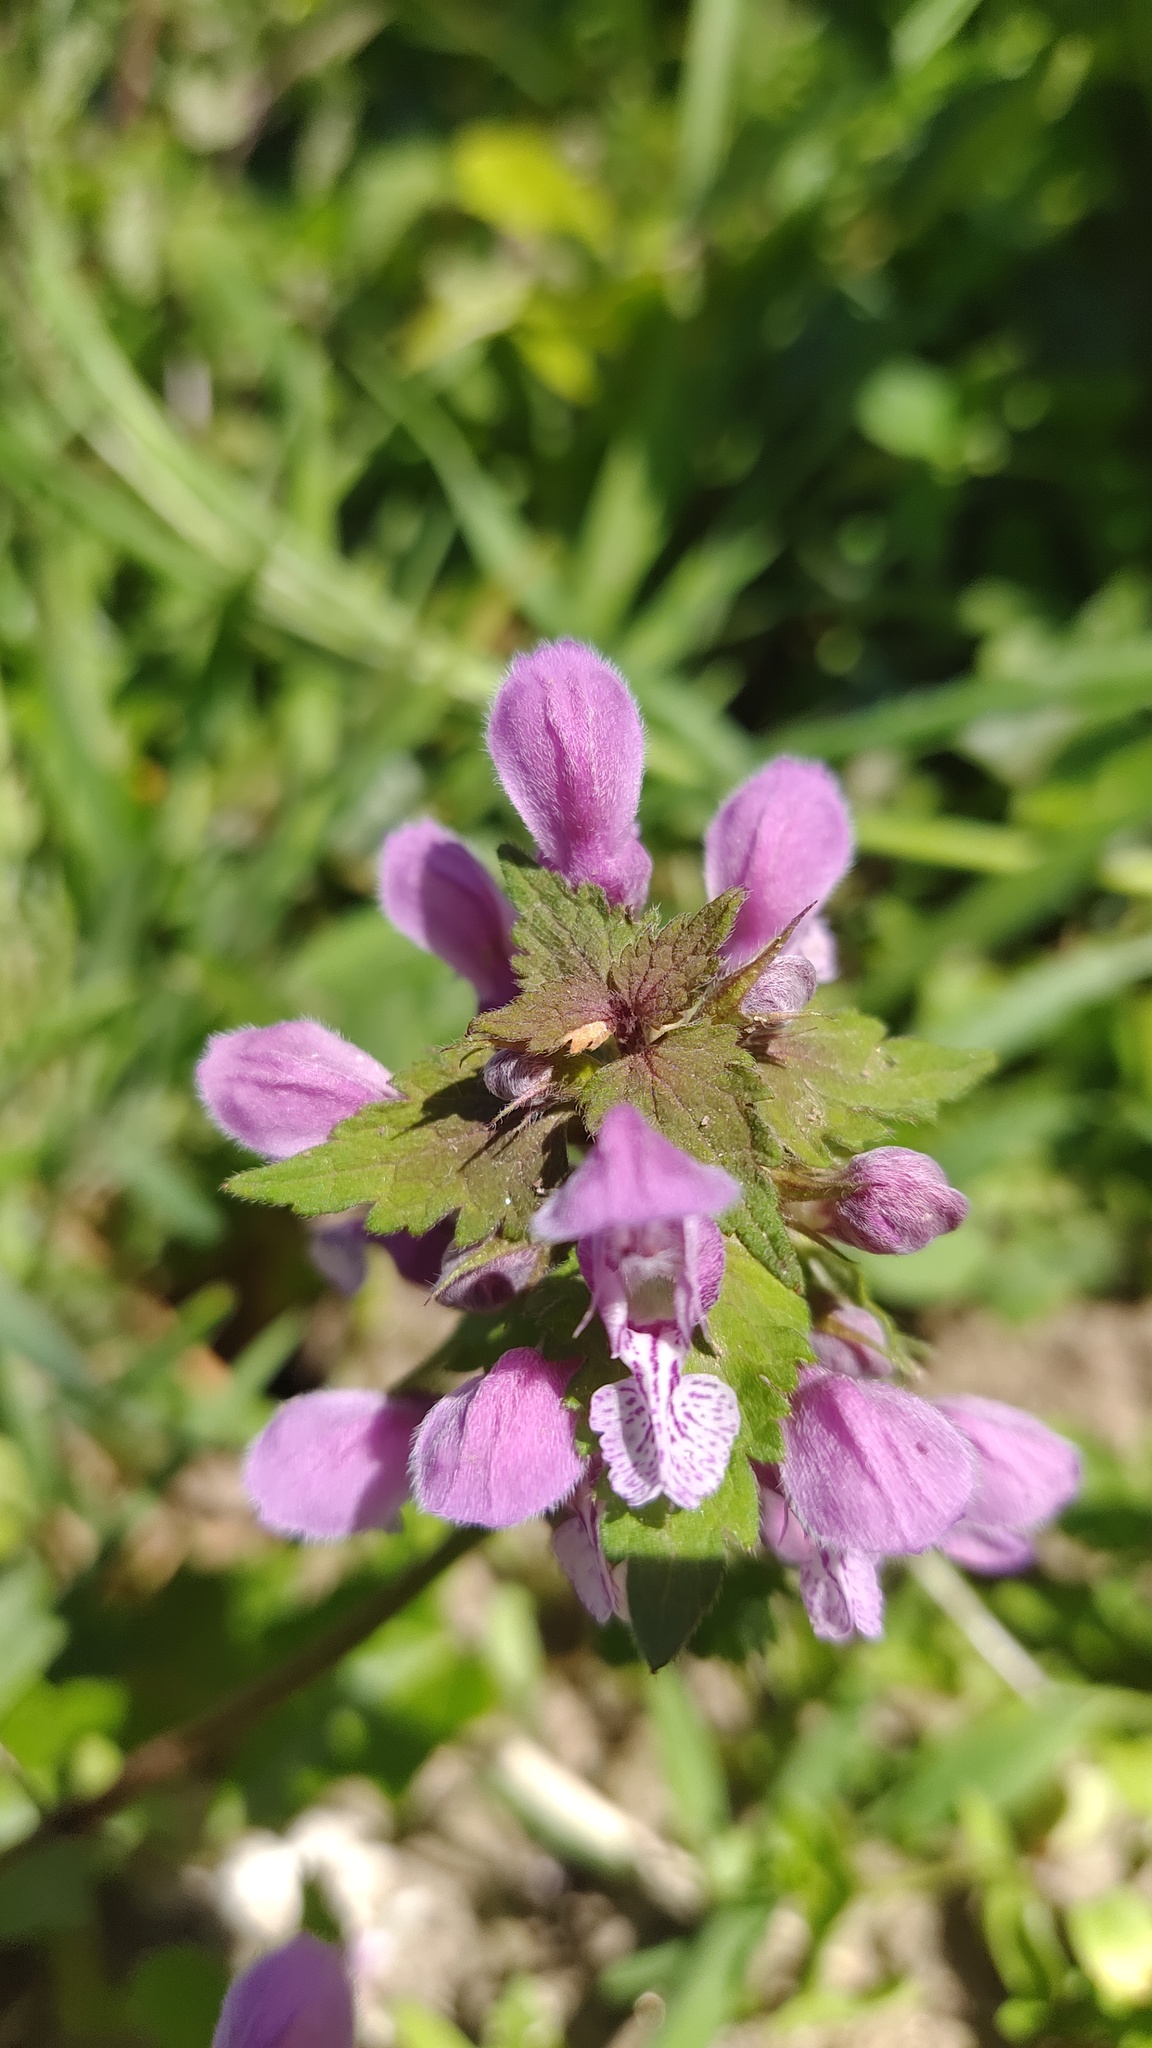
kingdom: Plantae
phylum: Tracheophyta
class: Magnoliopsida
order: Lamiales
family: Lamiaceae
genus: Lamium
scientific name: Lamium purpureum
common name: Red dead-nettle
